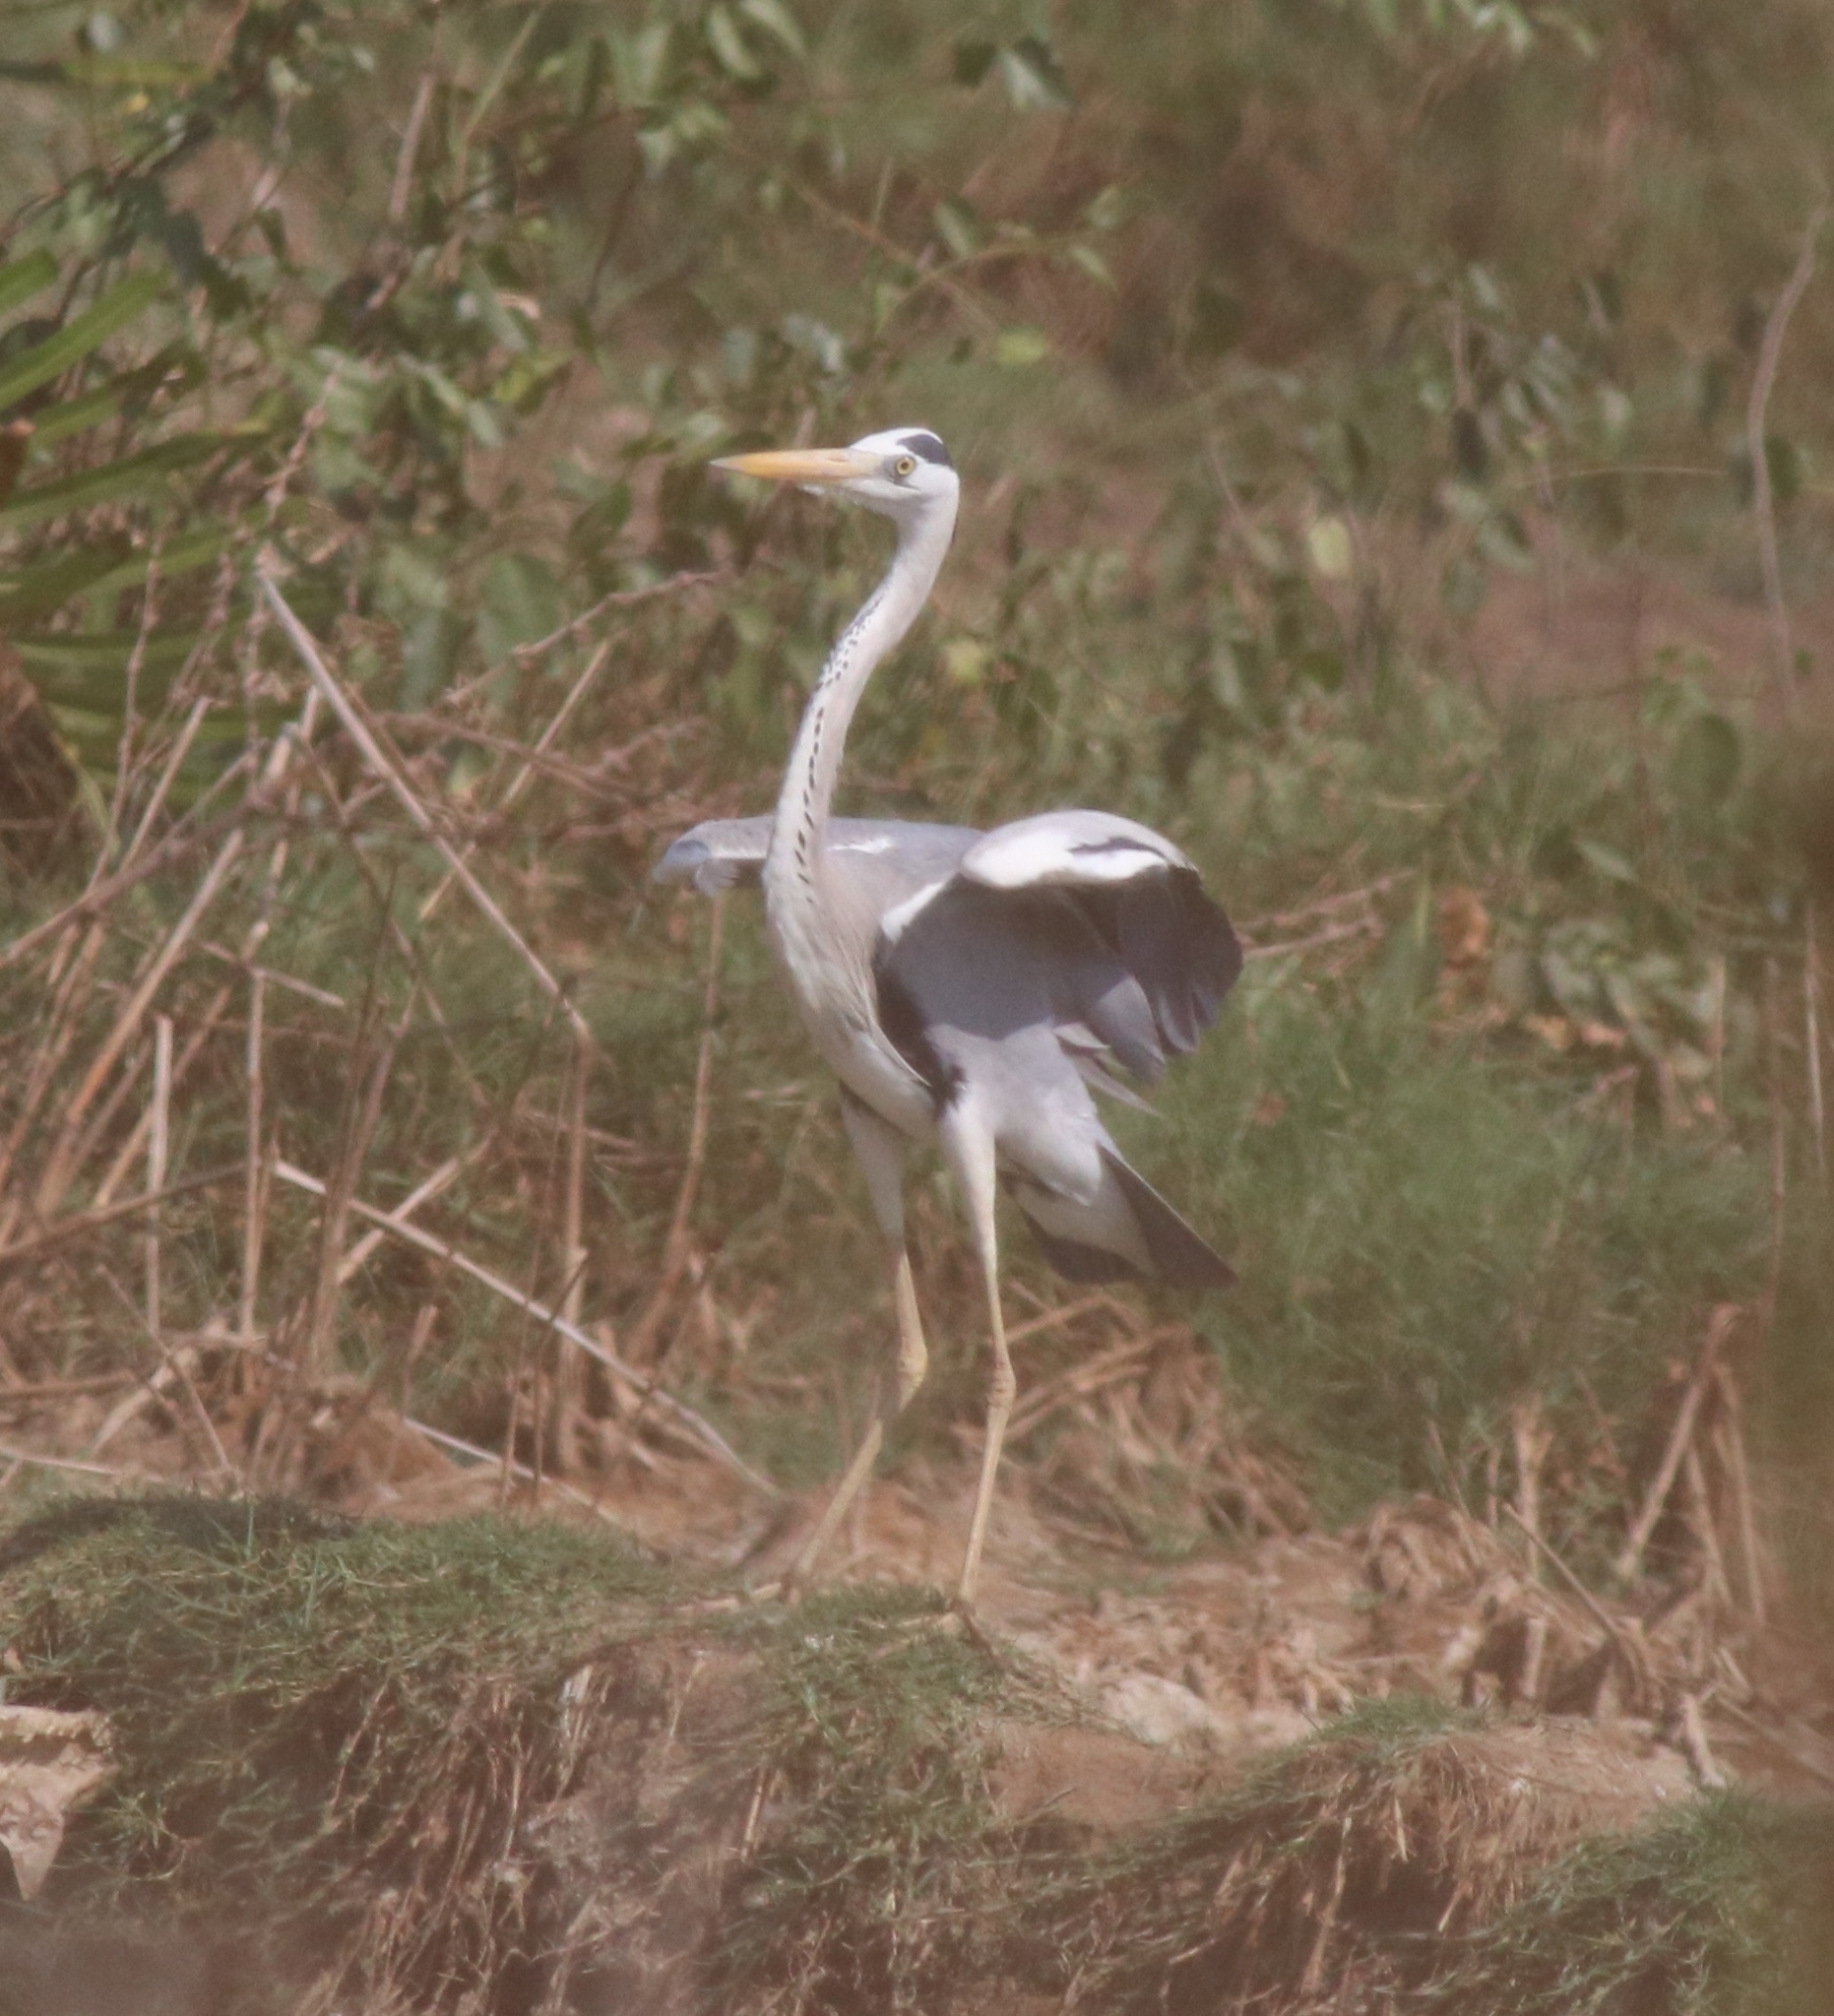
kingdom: Animalia
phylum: Chordata
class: Aves
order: Pelecaniformes
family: Ardeidae
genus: Ardea
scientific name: Ardea cinerea
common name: Grey heron
